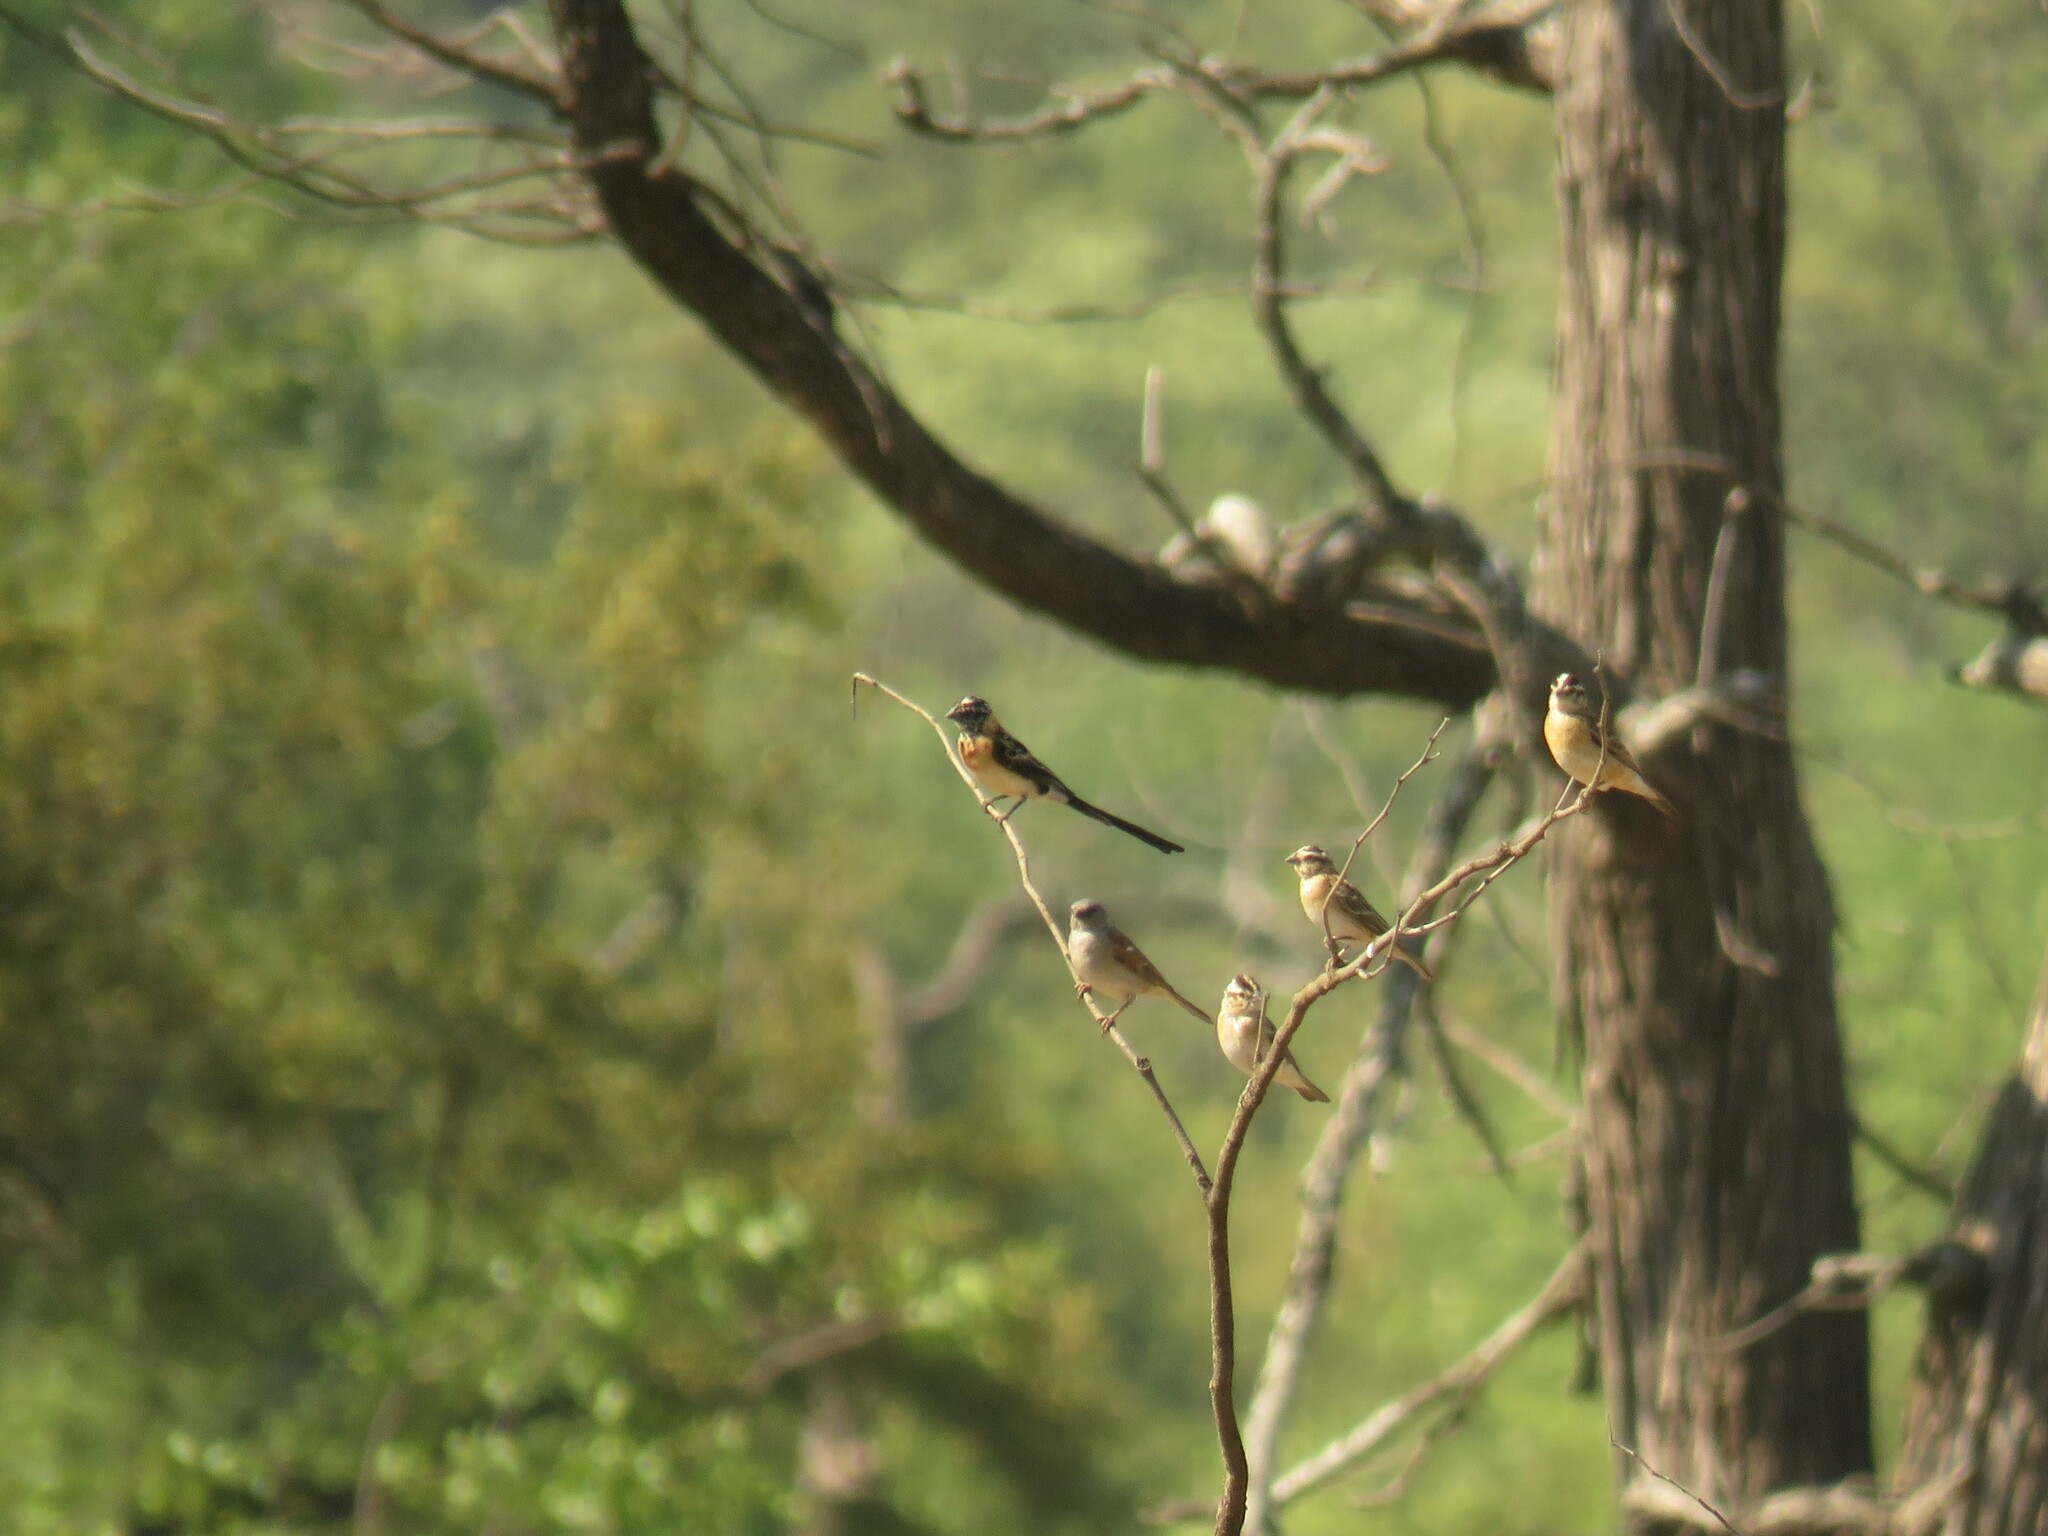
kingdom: Animalia
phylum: Chordata
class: Aves
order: Passeriformes
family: Viduidae
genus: Vidua
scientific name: Vidua paradisaea
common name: Long-tailed paradise whydah
